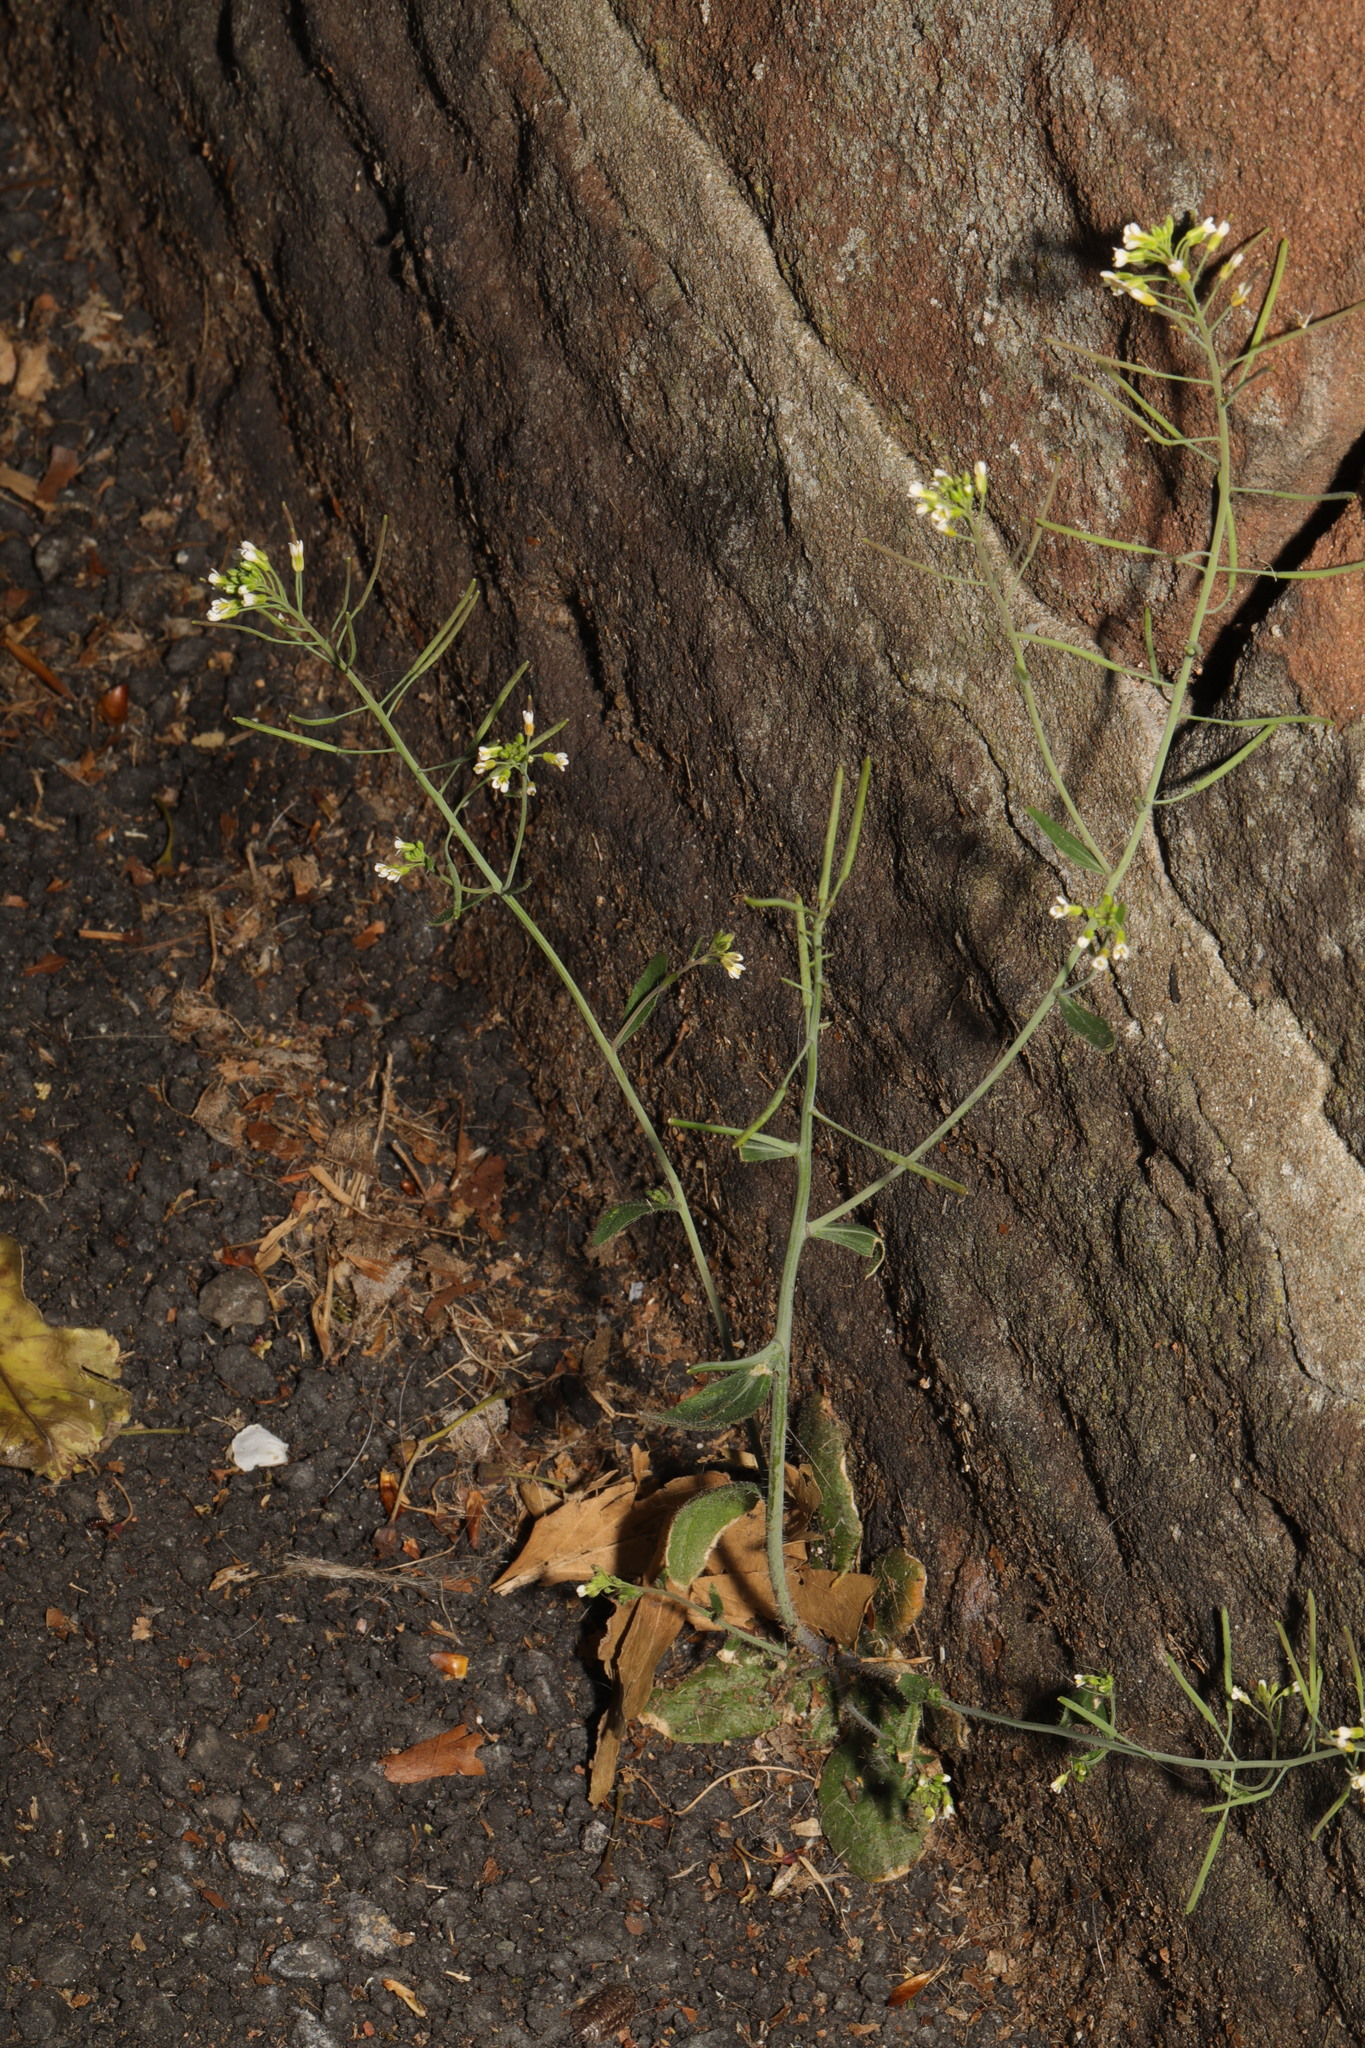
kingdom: Plantae
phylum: Tracheophyta
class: Magnoliopsida
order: Brassicales
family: Brassicaceae
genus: Arabidopsis
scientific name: Arabidopsis thaliana
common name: Thale cress
